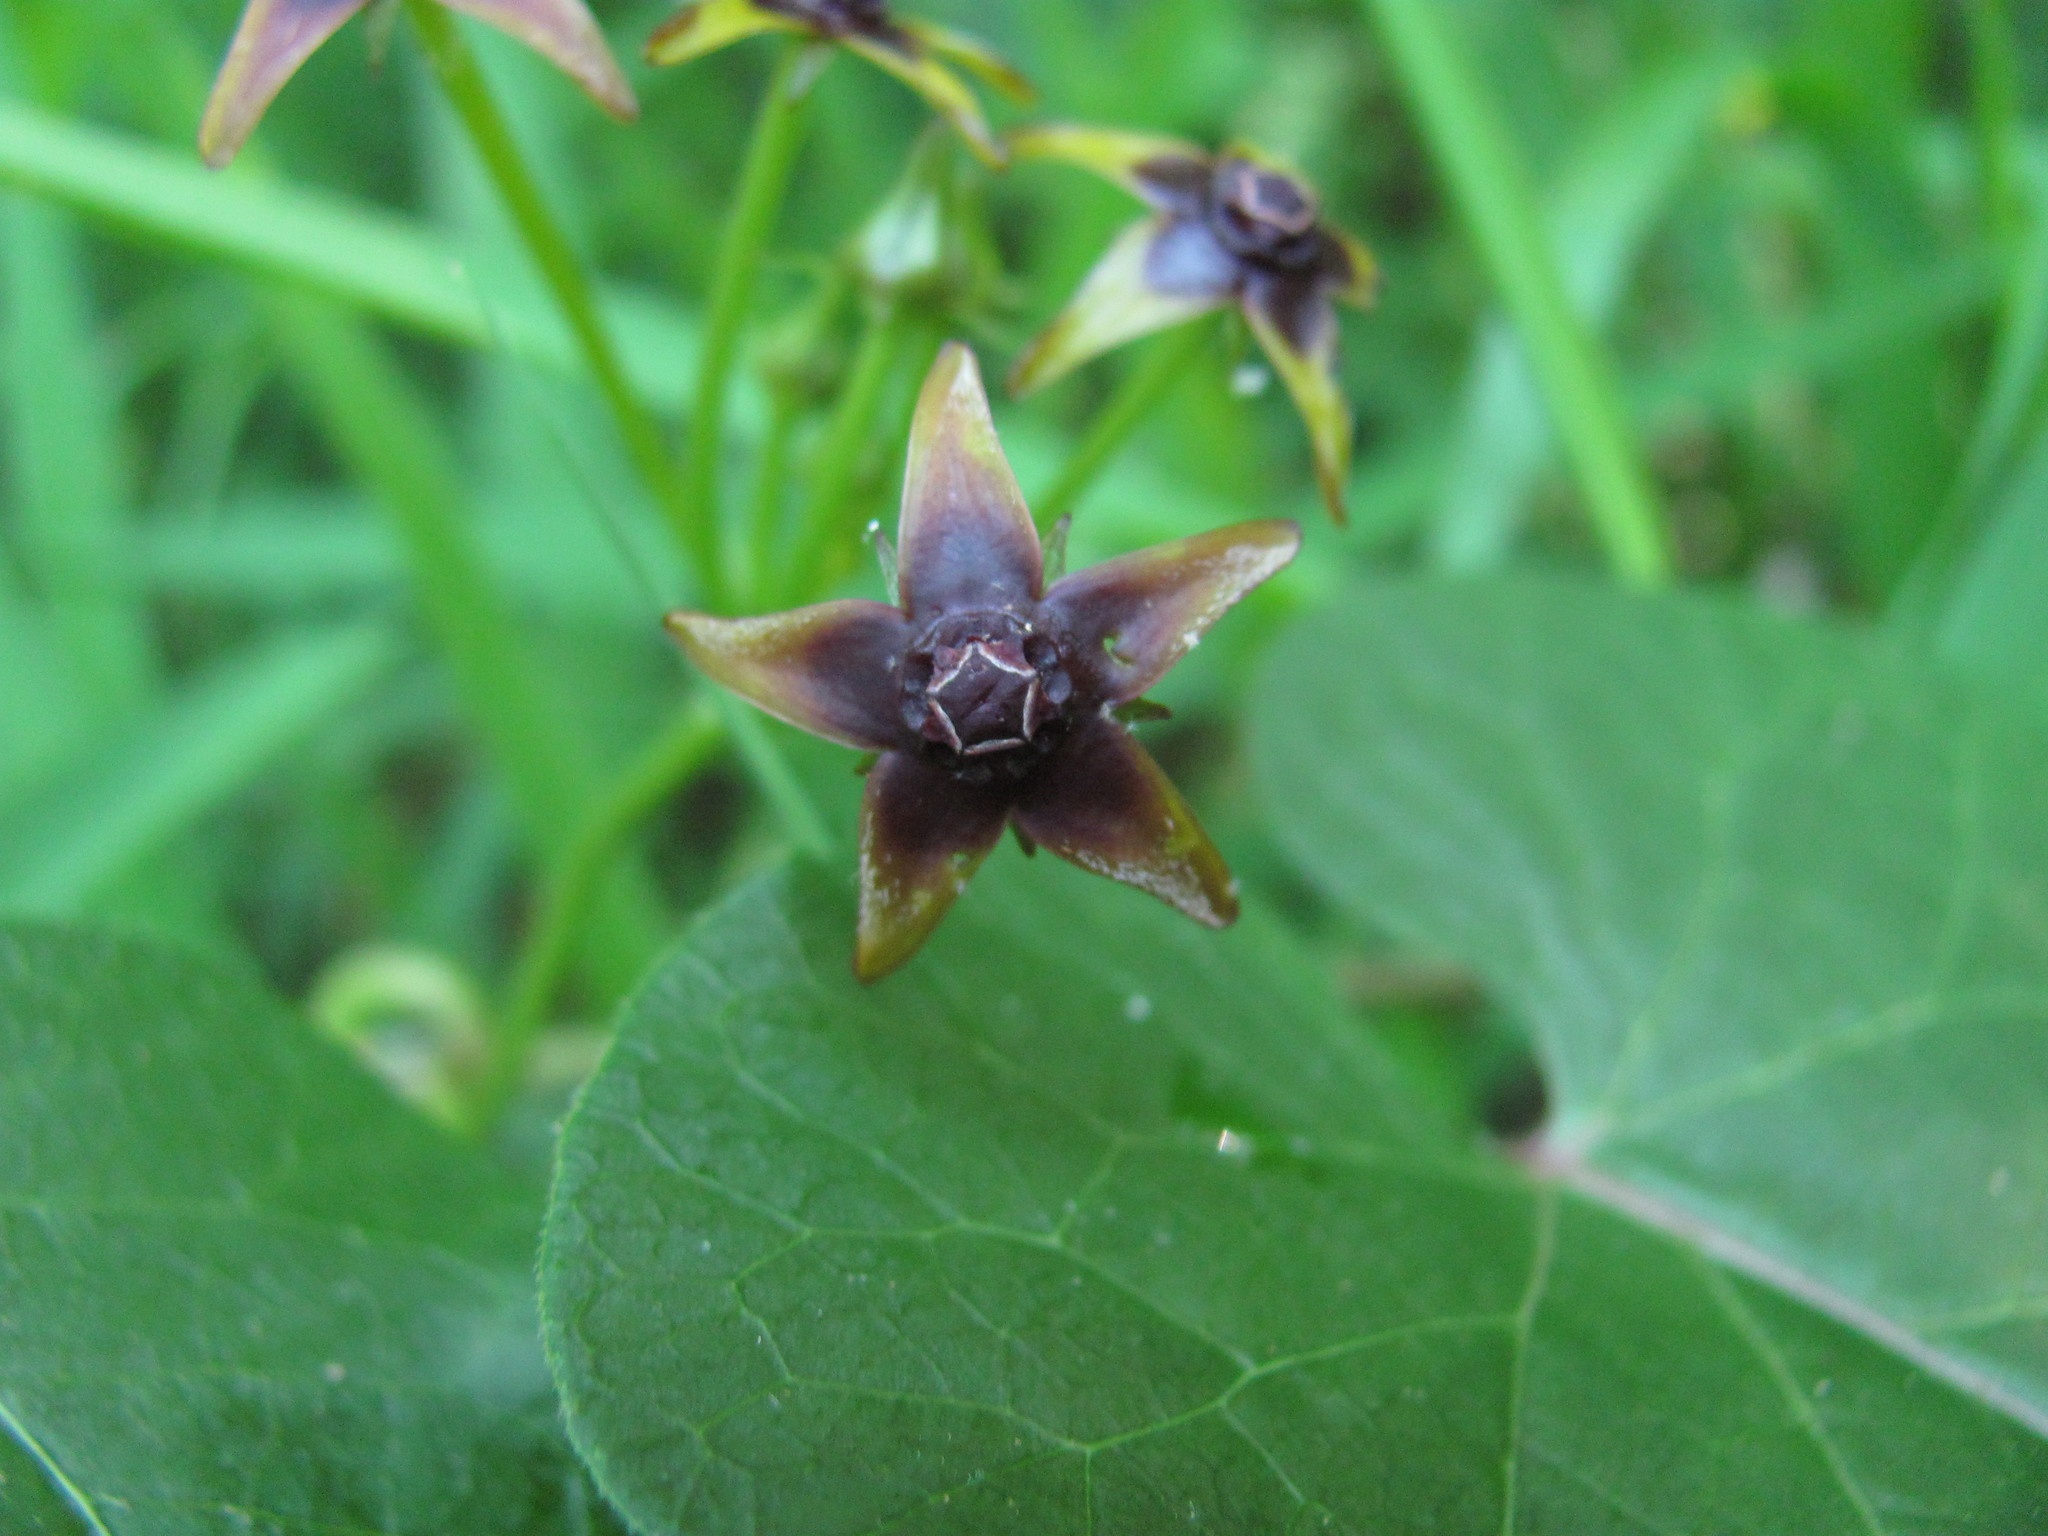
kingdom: Plantae
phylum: Tracheophyta
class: Magnoliopsida
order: Gentianales
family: Apocynaceae
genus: Gonolobus
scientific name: Gonolobus suberosus
